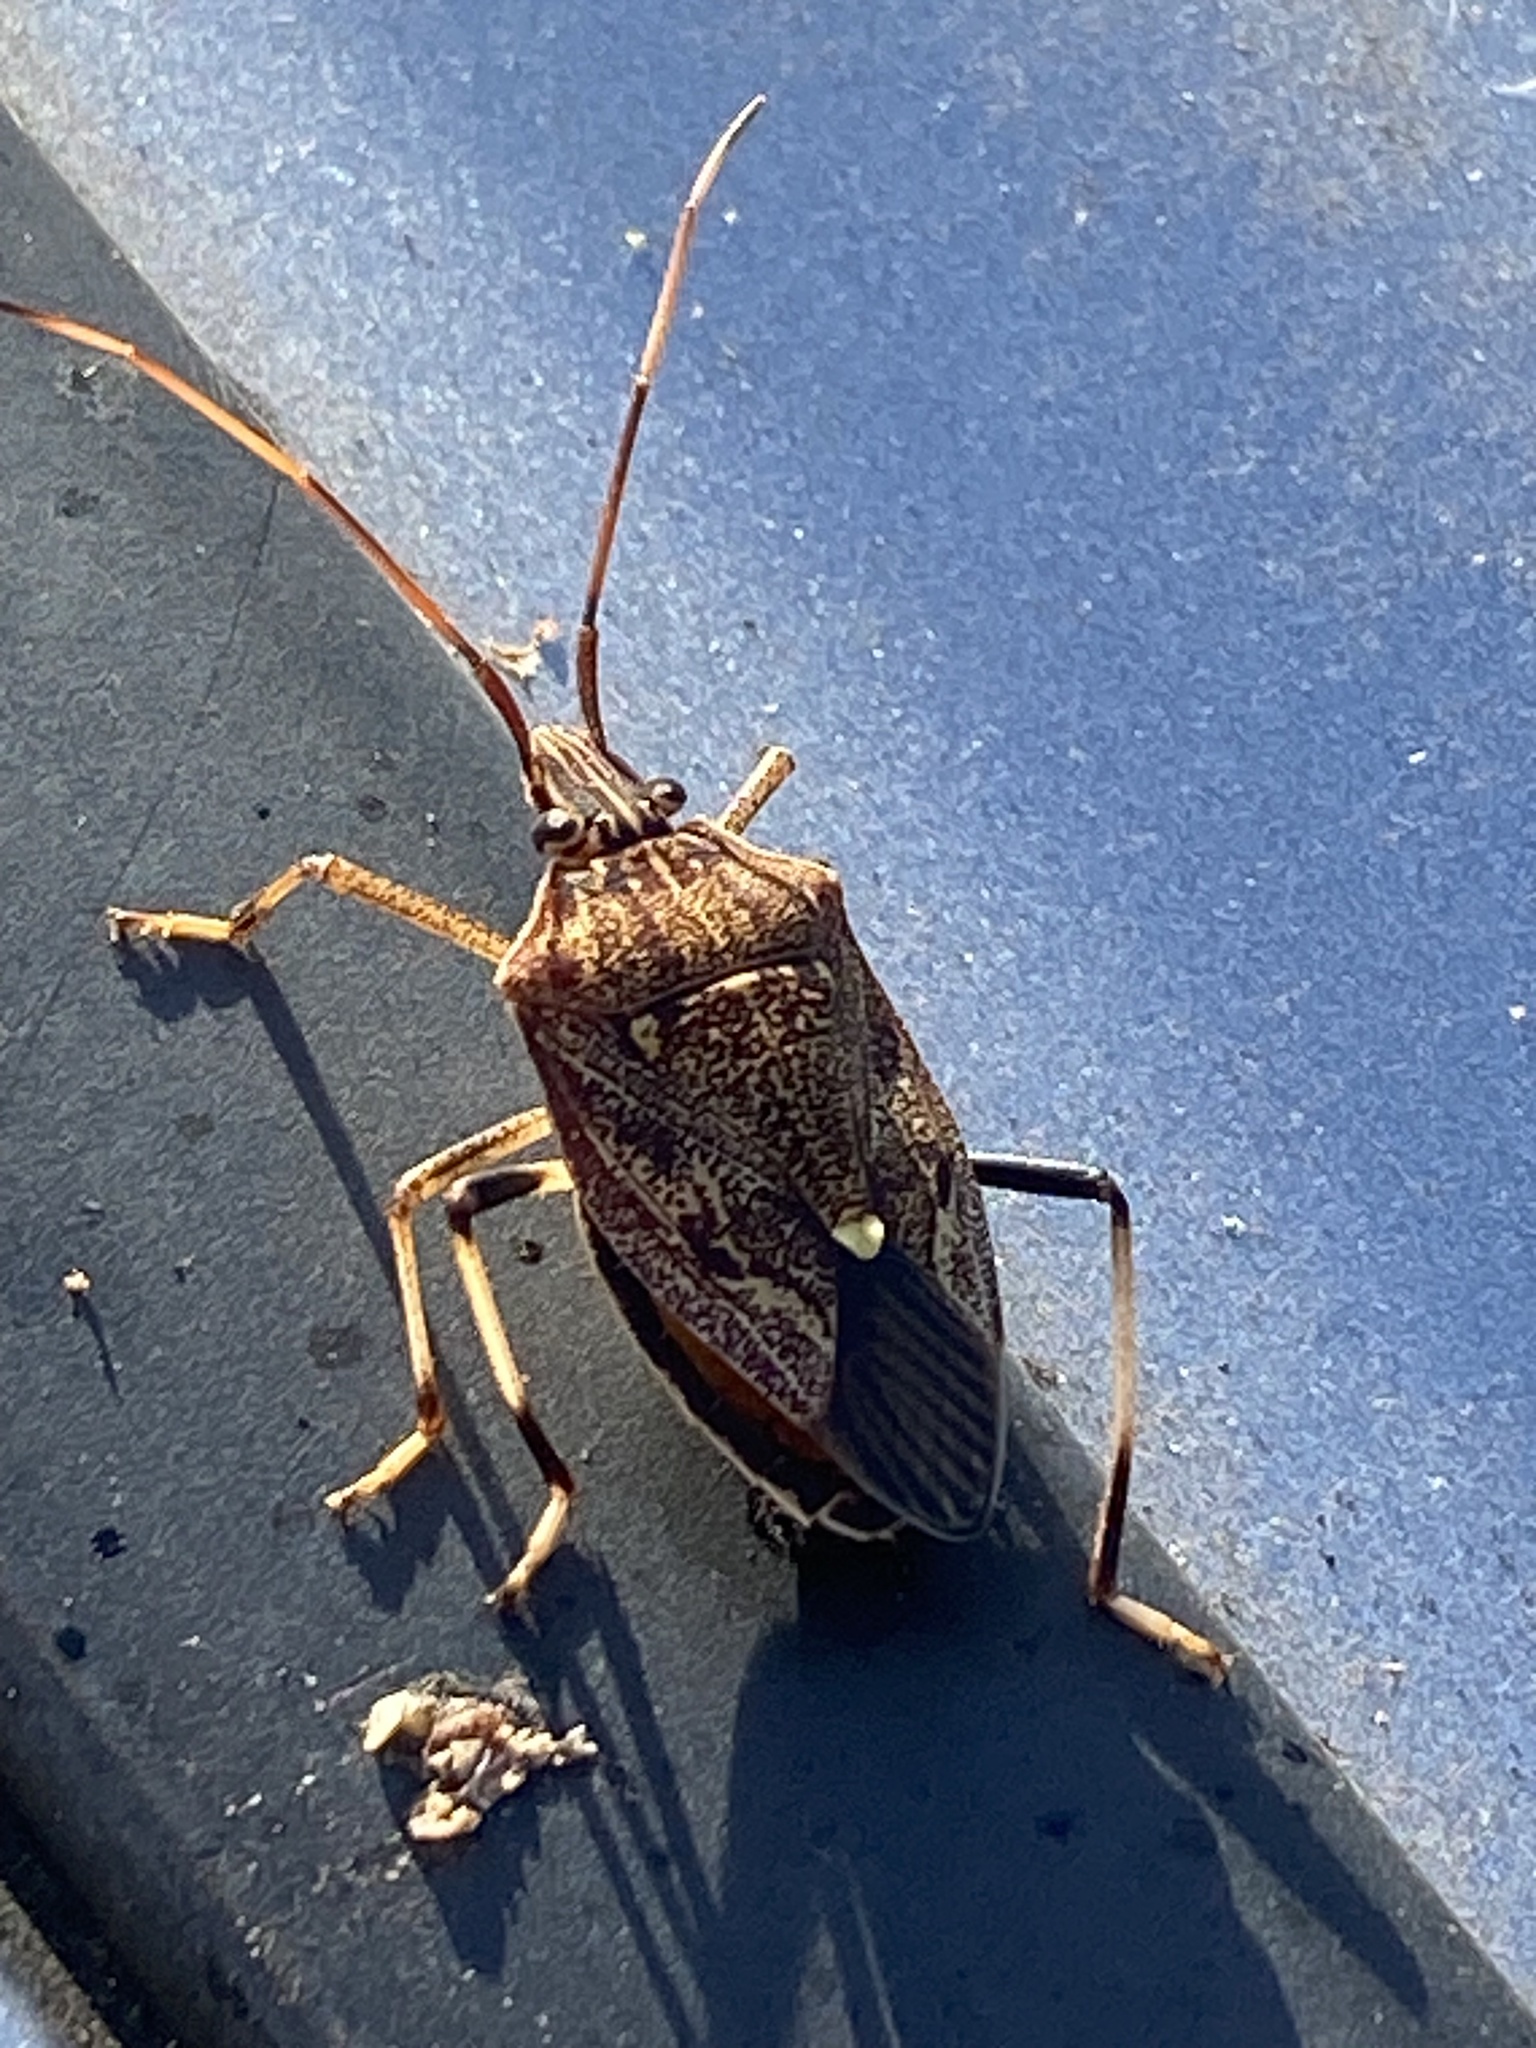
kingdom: Animalia
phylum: Arthropoda
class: Insecta
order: Hemiptera
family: Pentatomidae
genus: Poecilometis
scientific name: Poecilometis
